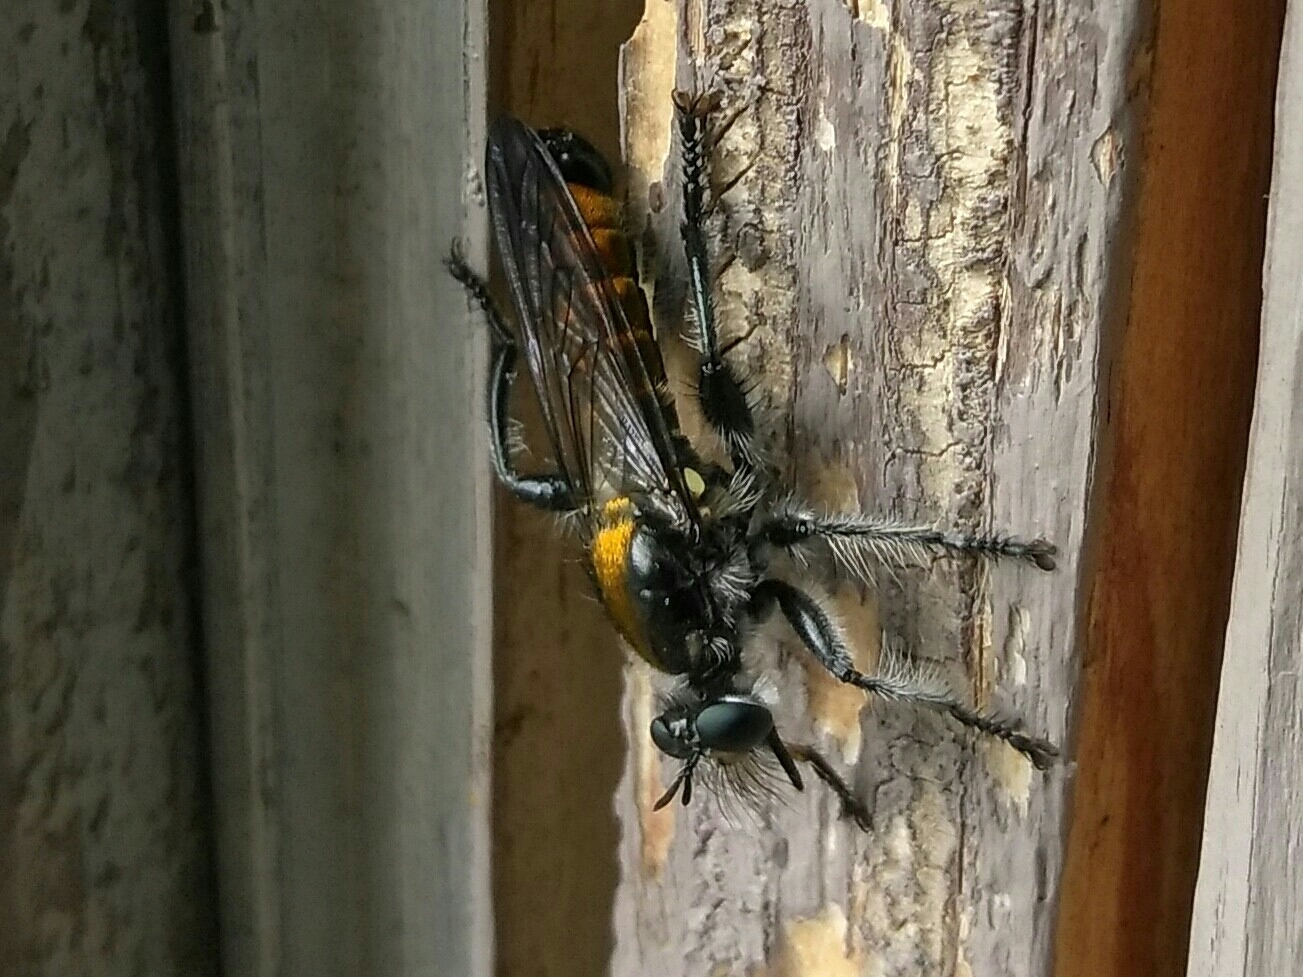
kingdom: Animalia
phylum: Arthropoda
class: Insecta
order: Diptera
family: Asilidae
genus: Laphria
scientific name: Laphria
